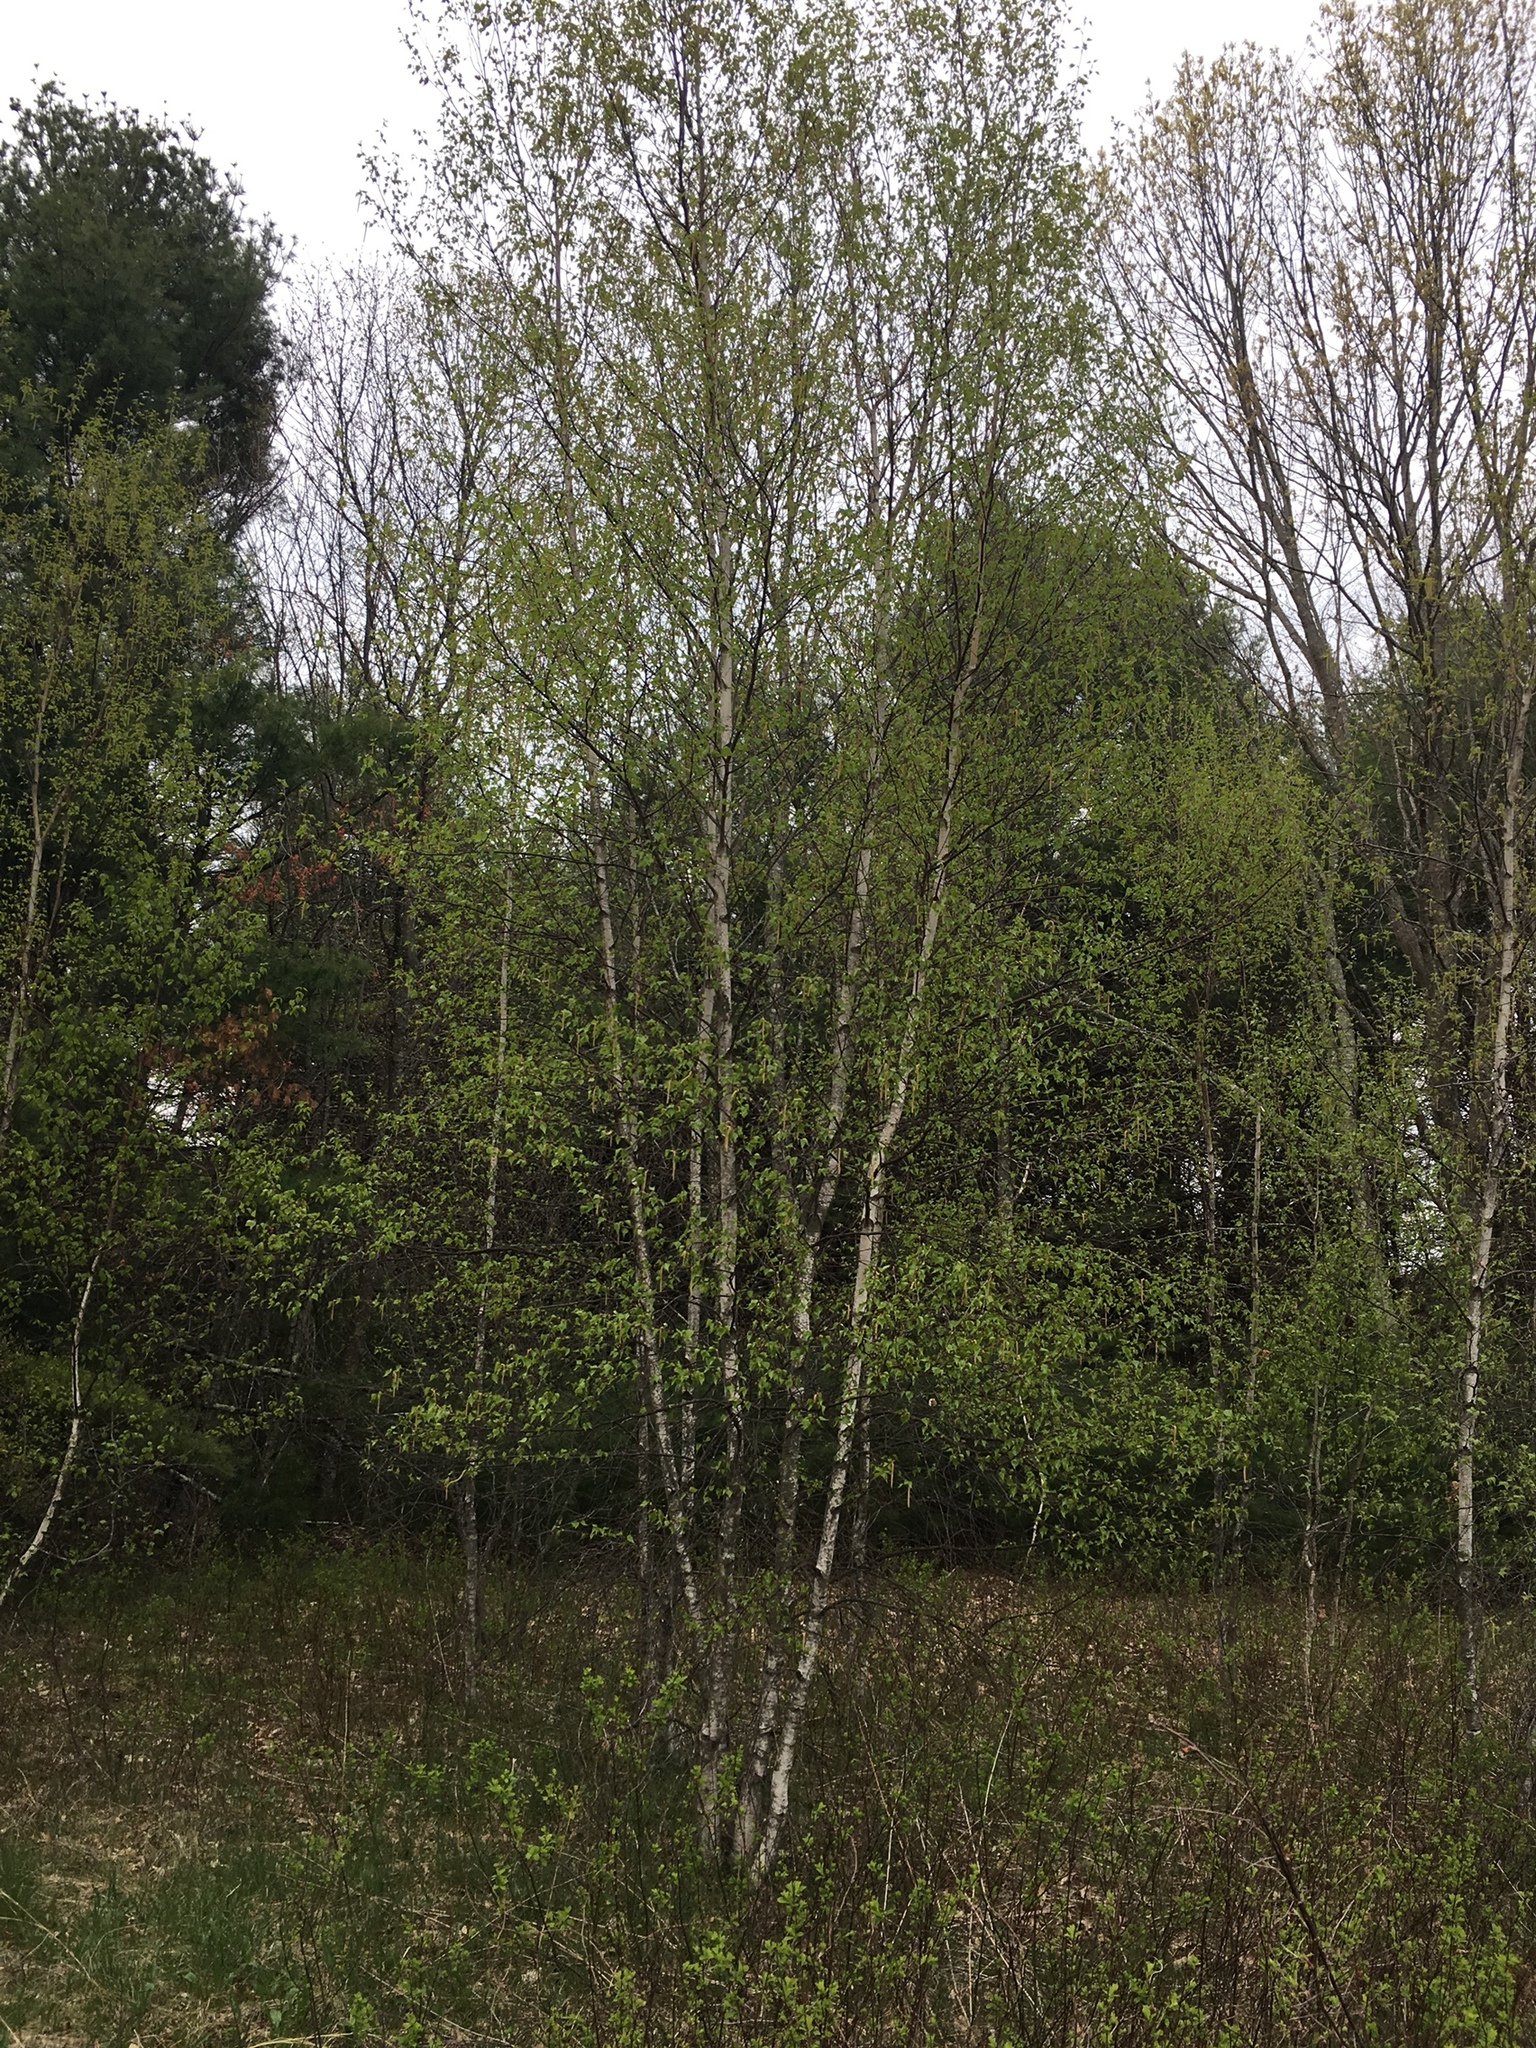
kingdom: Plantae
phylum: Tracheophyta
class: Magnoliopsida
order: Fagales
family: Betulaceae
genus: Betula
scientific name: Betula populifolia
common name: Fire birch
